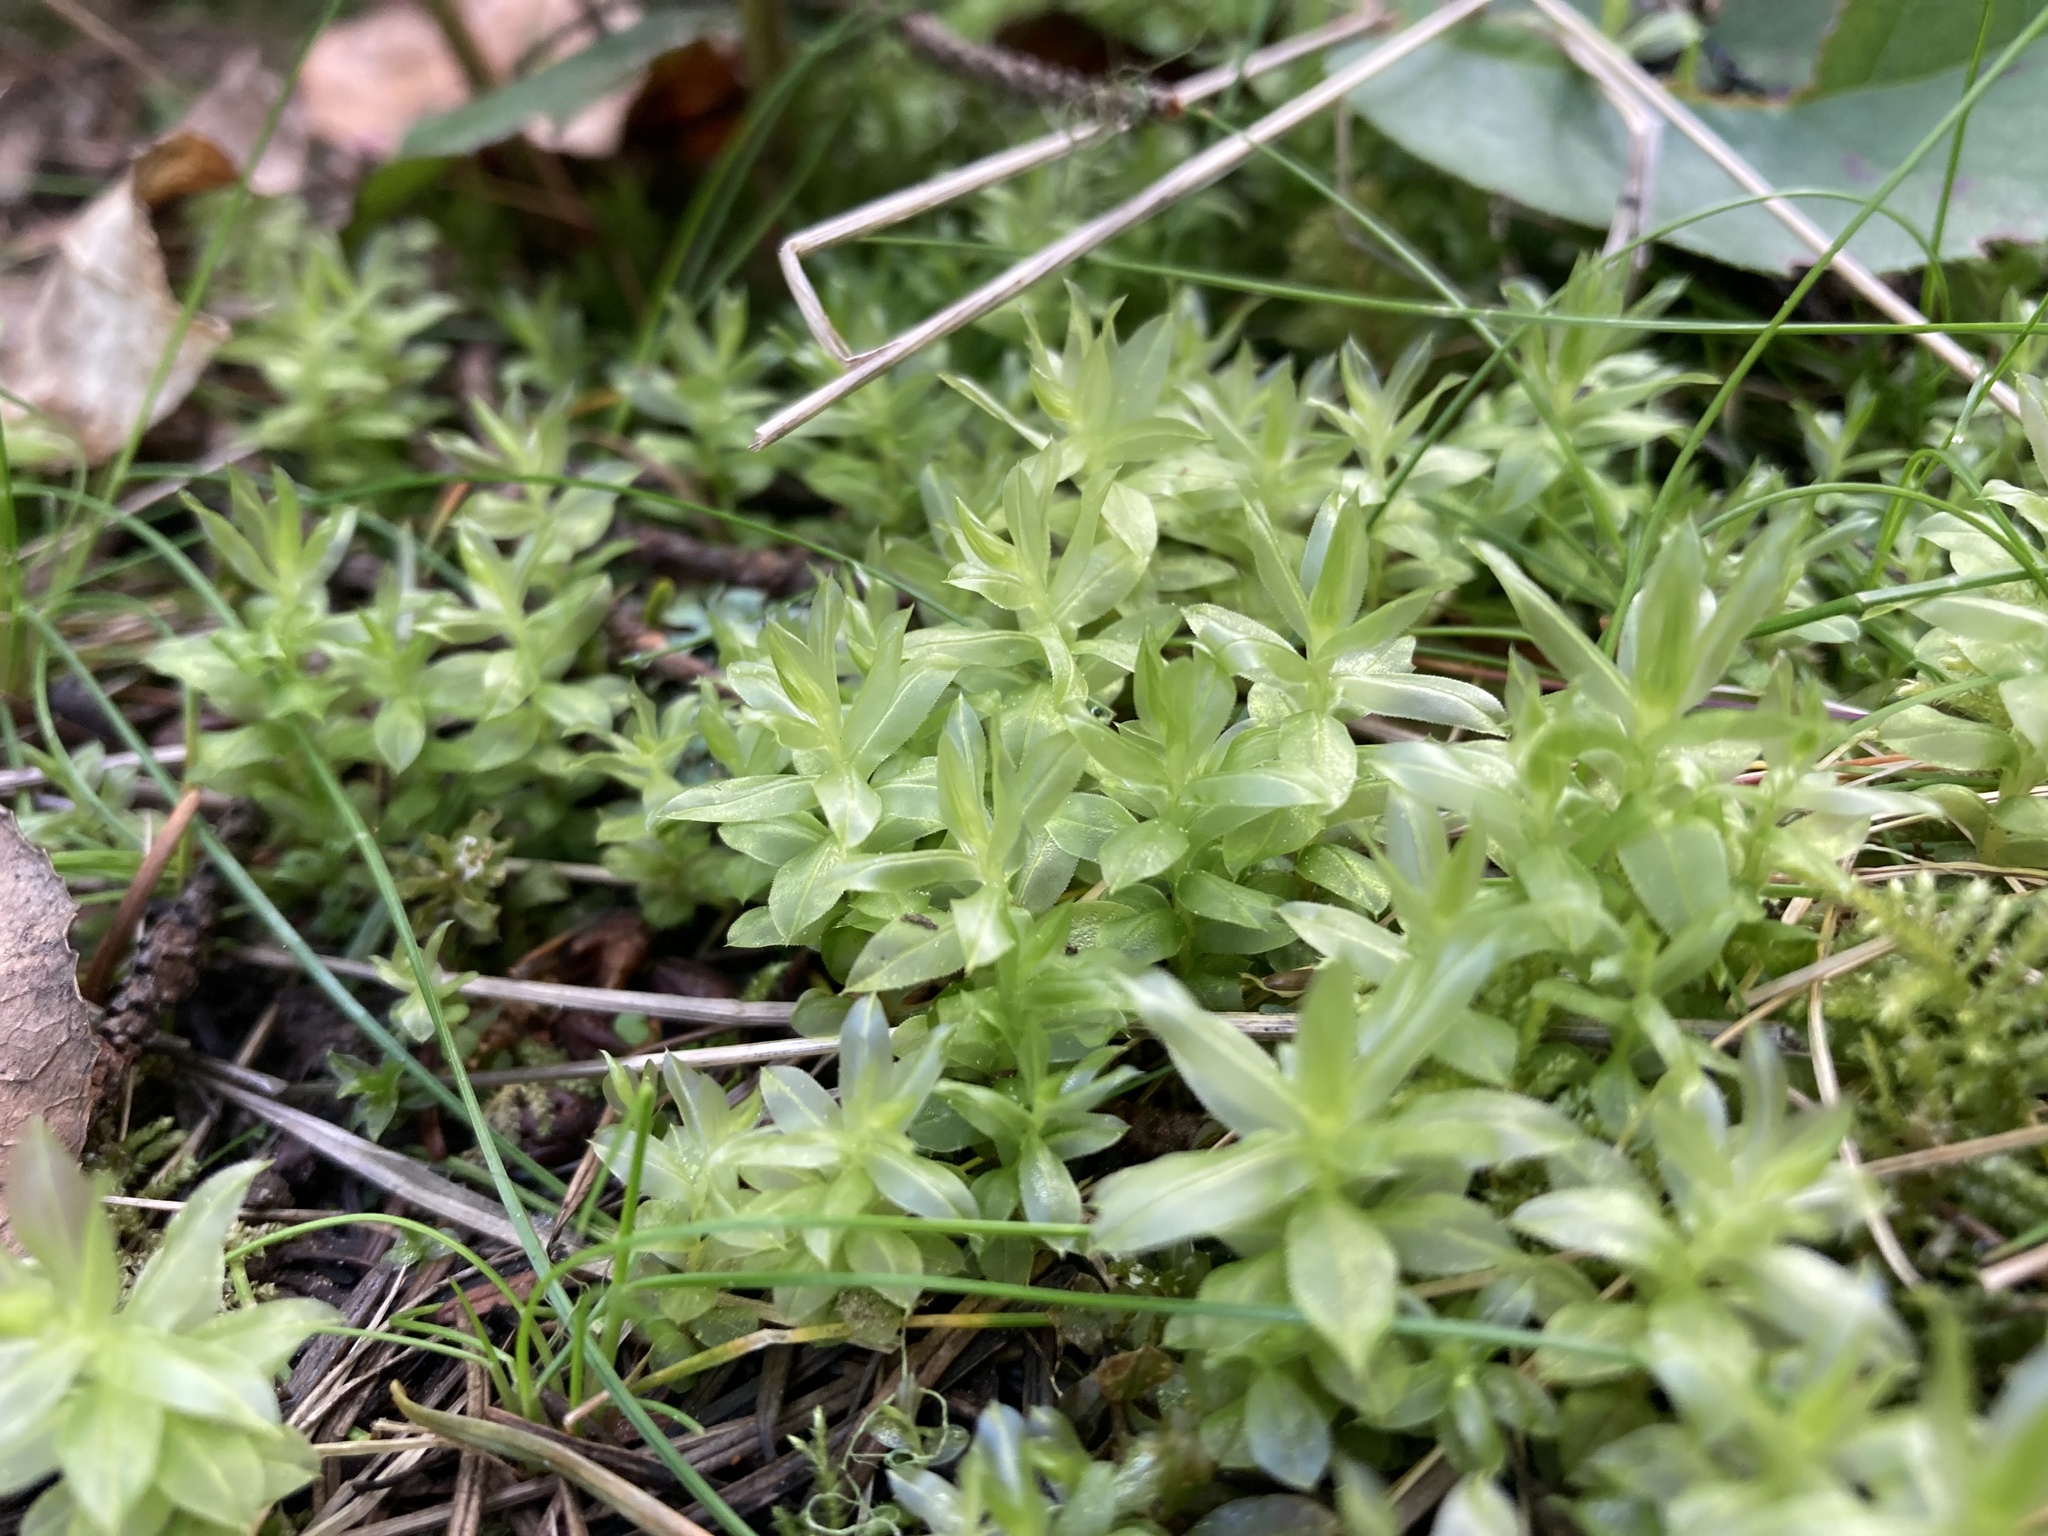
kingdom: Plantae
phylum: Bryophyta
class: Bryopsida
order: Bryales
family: Mniaceae
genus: Plagiomnium
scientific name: Plagiomnium insigne
